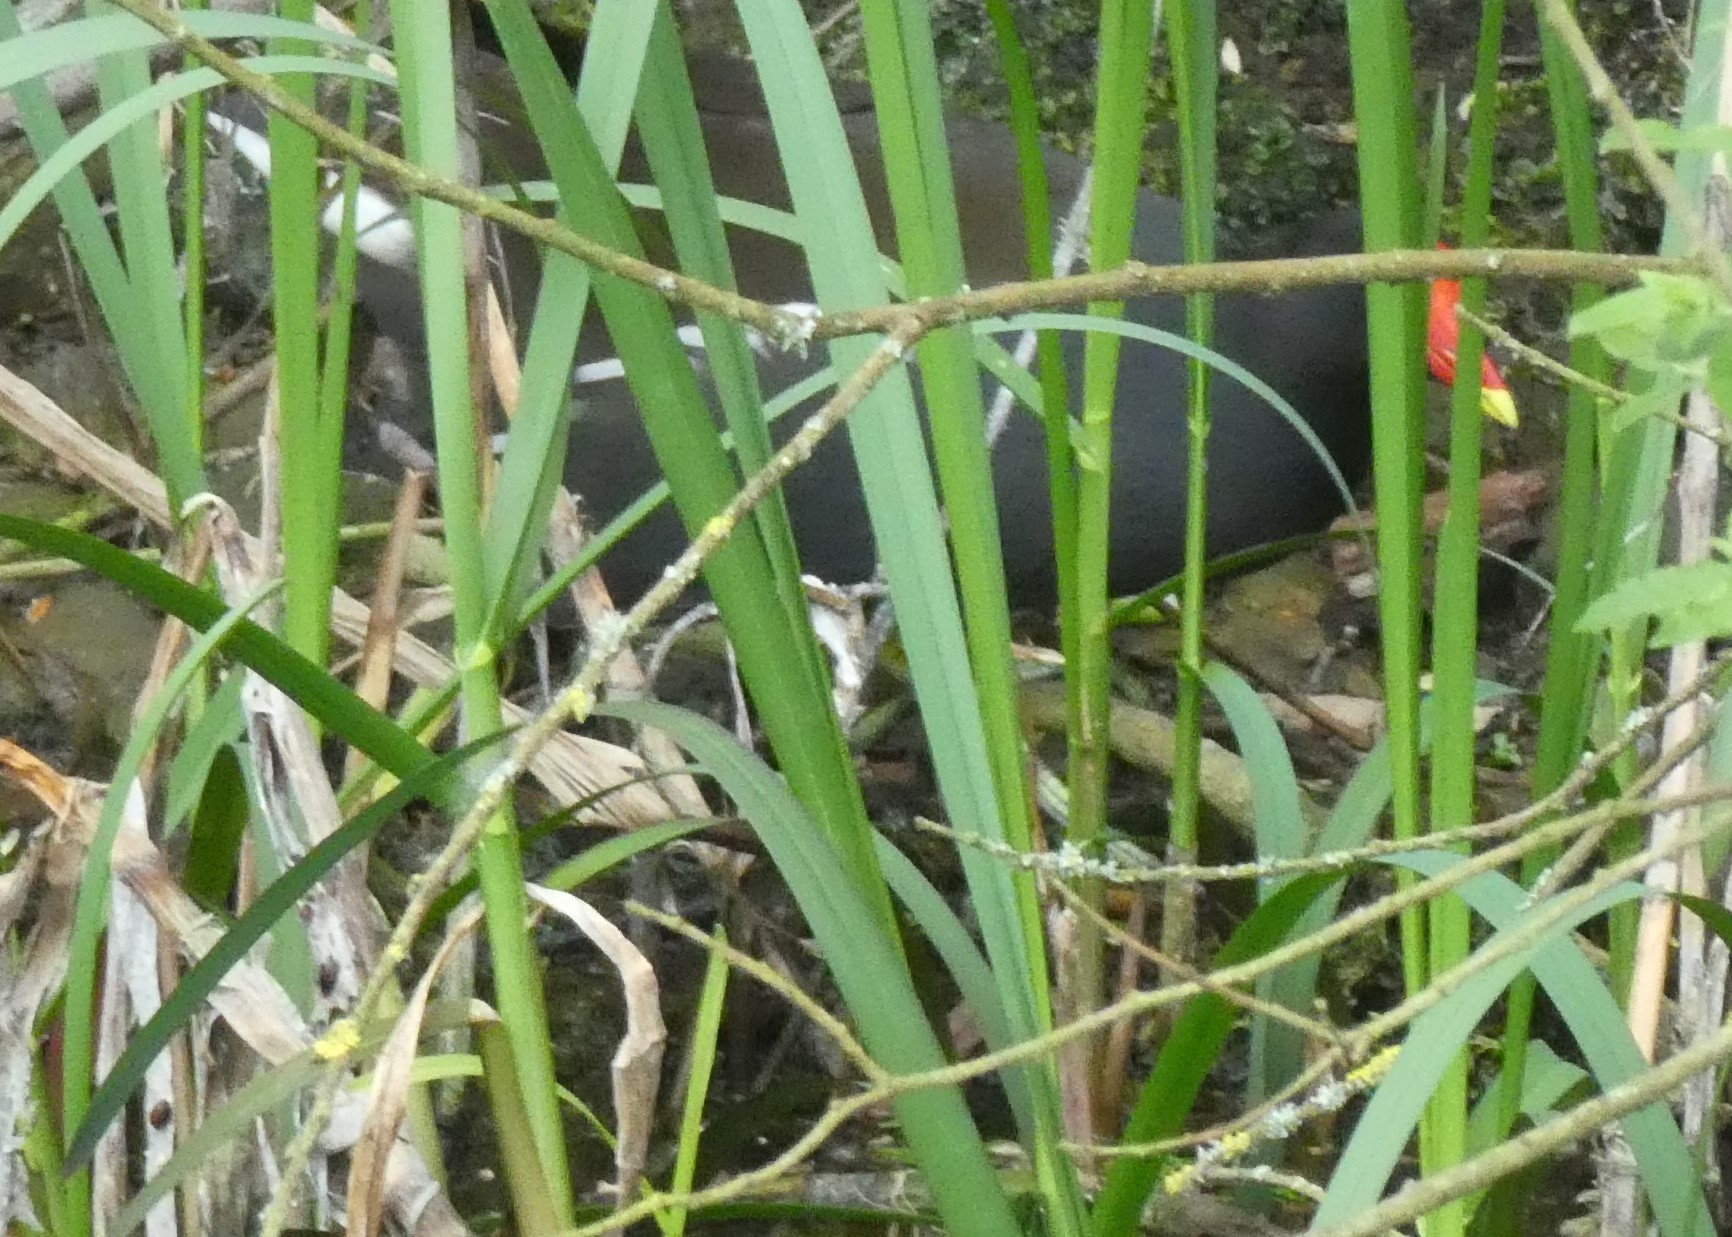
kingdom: Animalia
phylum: Chordata
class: Aves
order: Gruiformes
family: Rallidae
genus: Gallinula
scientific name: Gallinula chloropus
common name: Common moorhen
